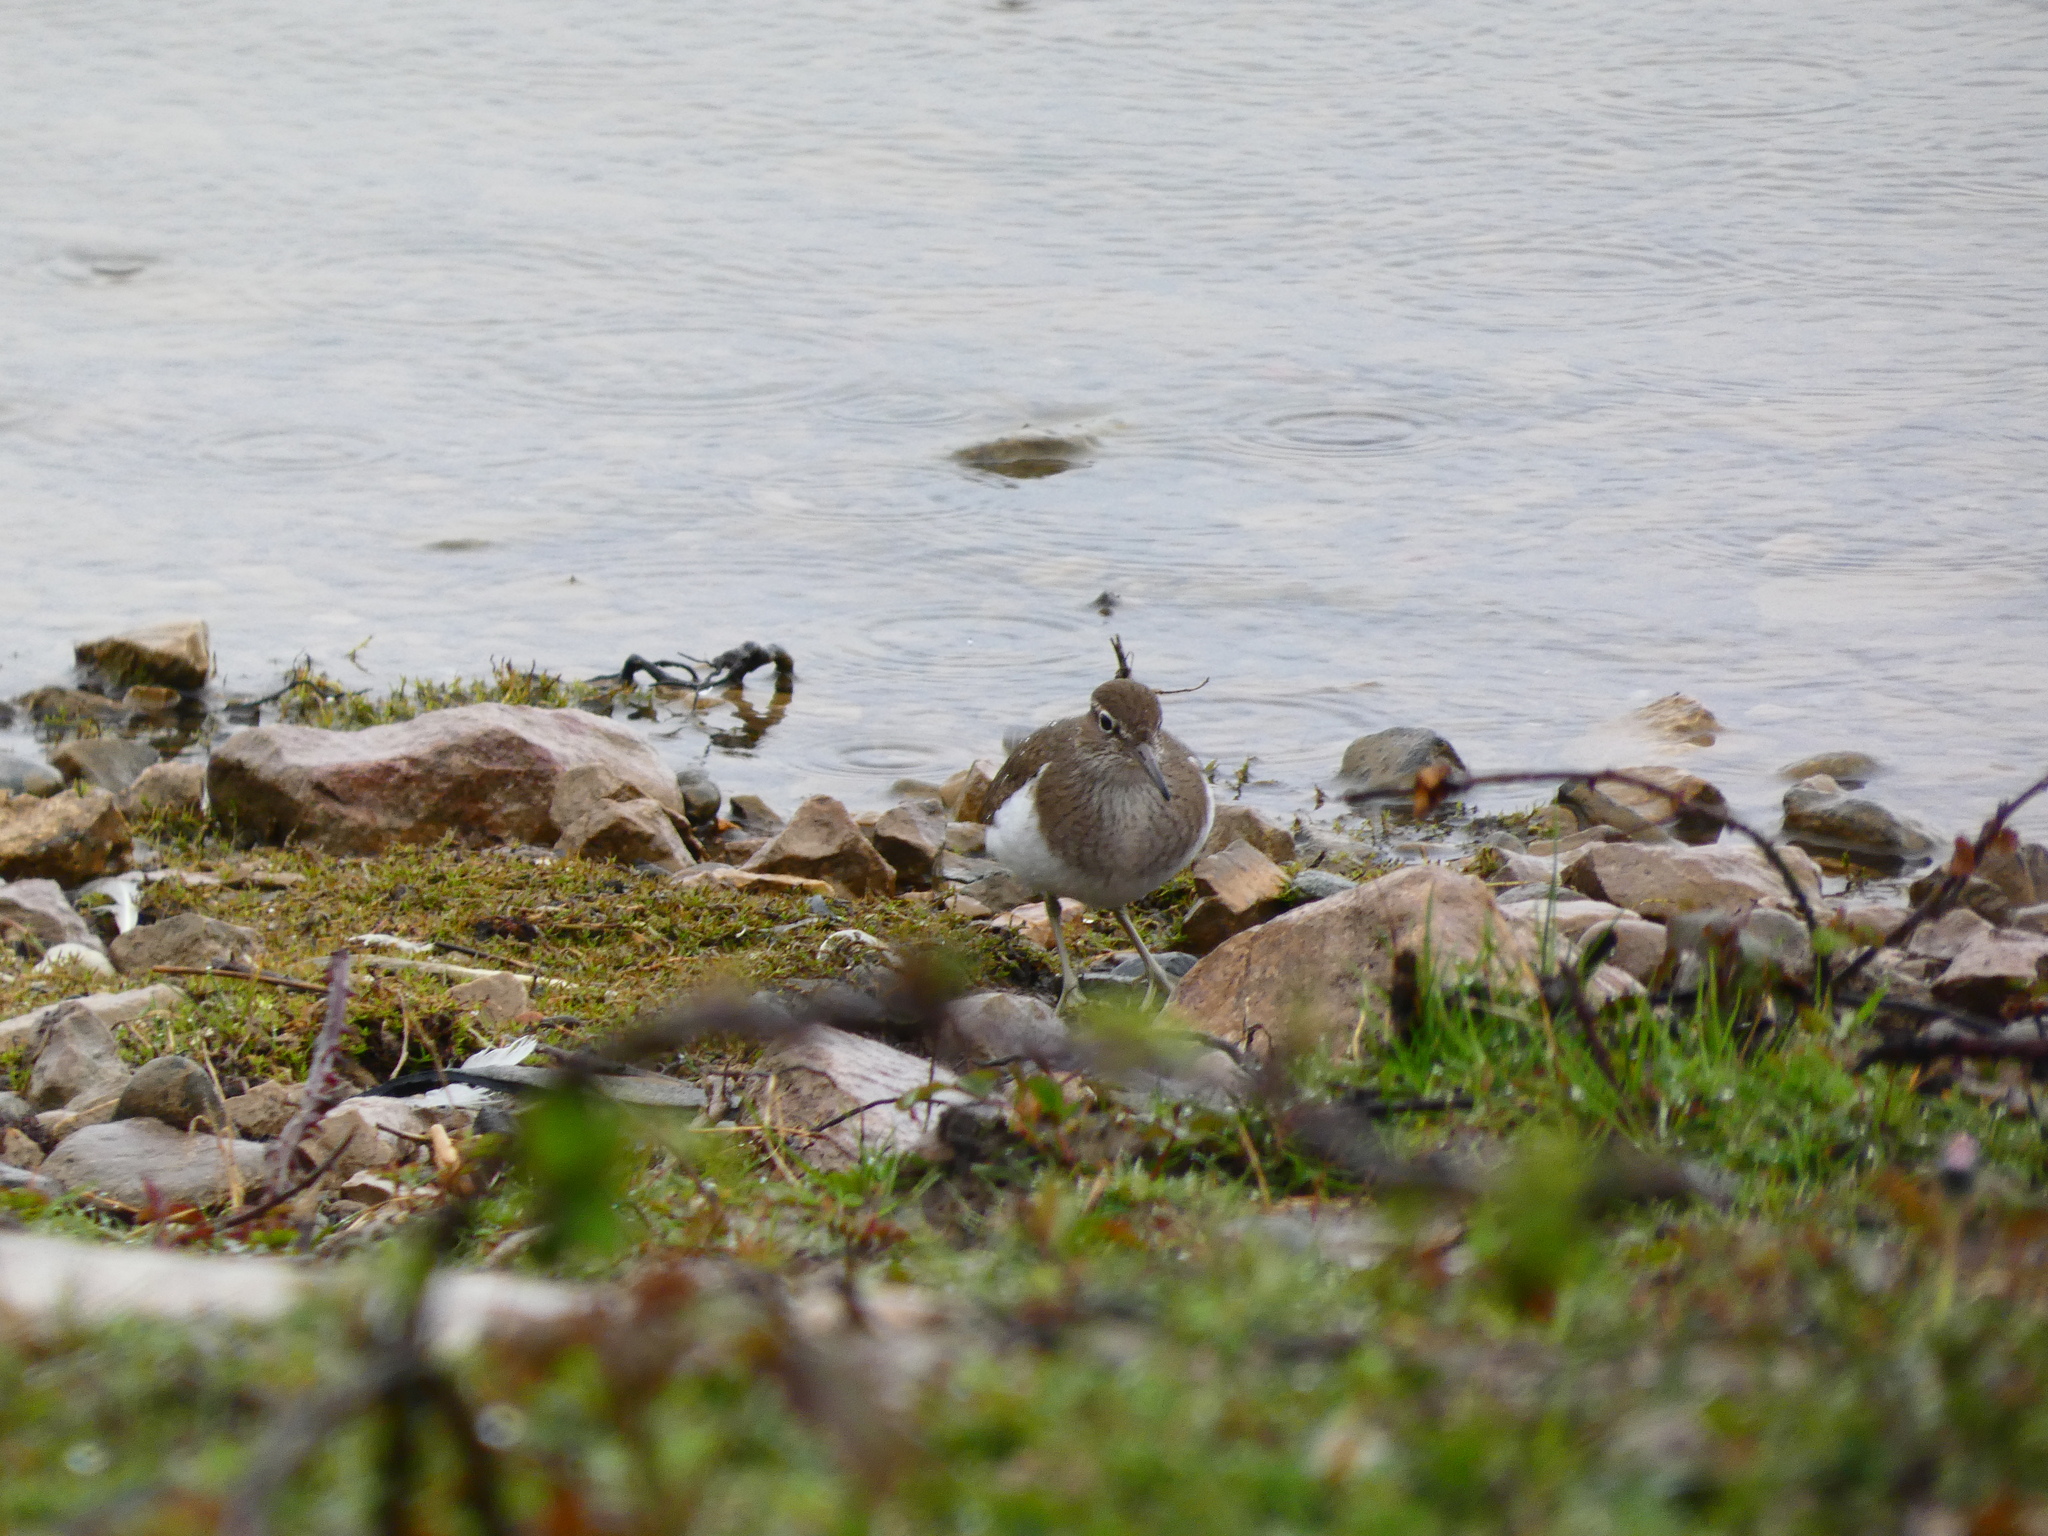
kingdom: Animalia
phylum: Chordata
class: Aves
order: Charadriiformes
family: Scolopacidae
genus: Actitis
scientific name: Actitis hypoleucos
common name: Common sandpiper
